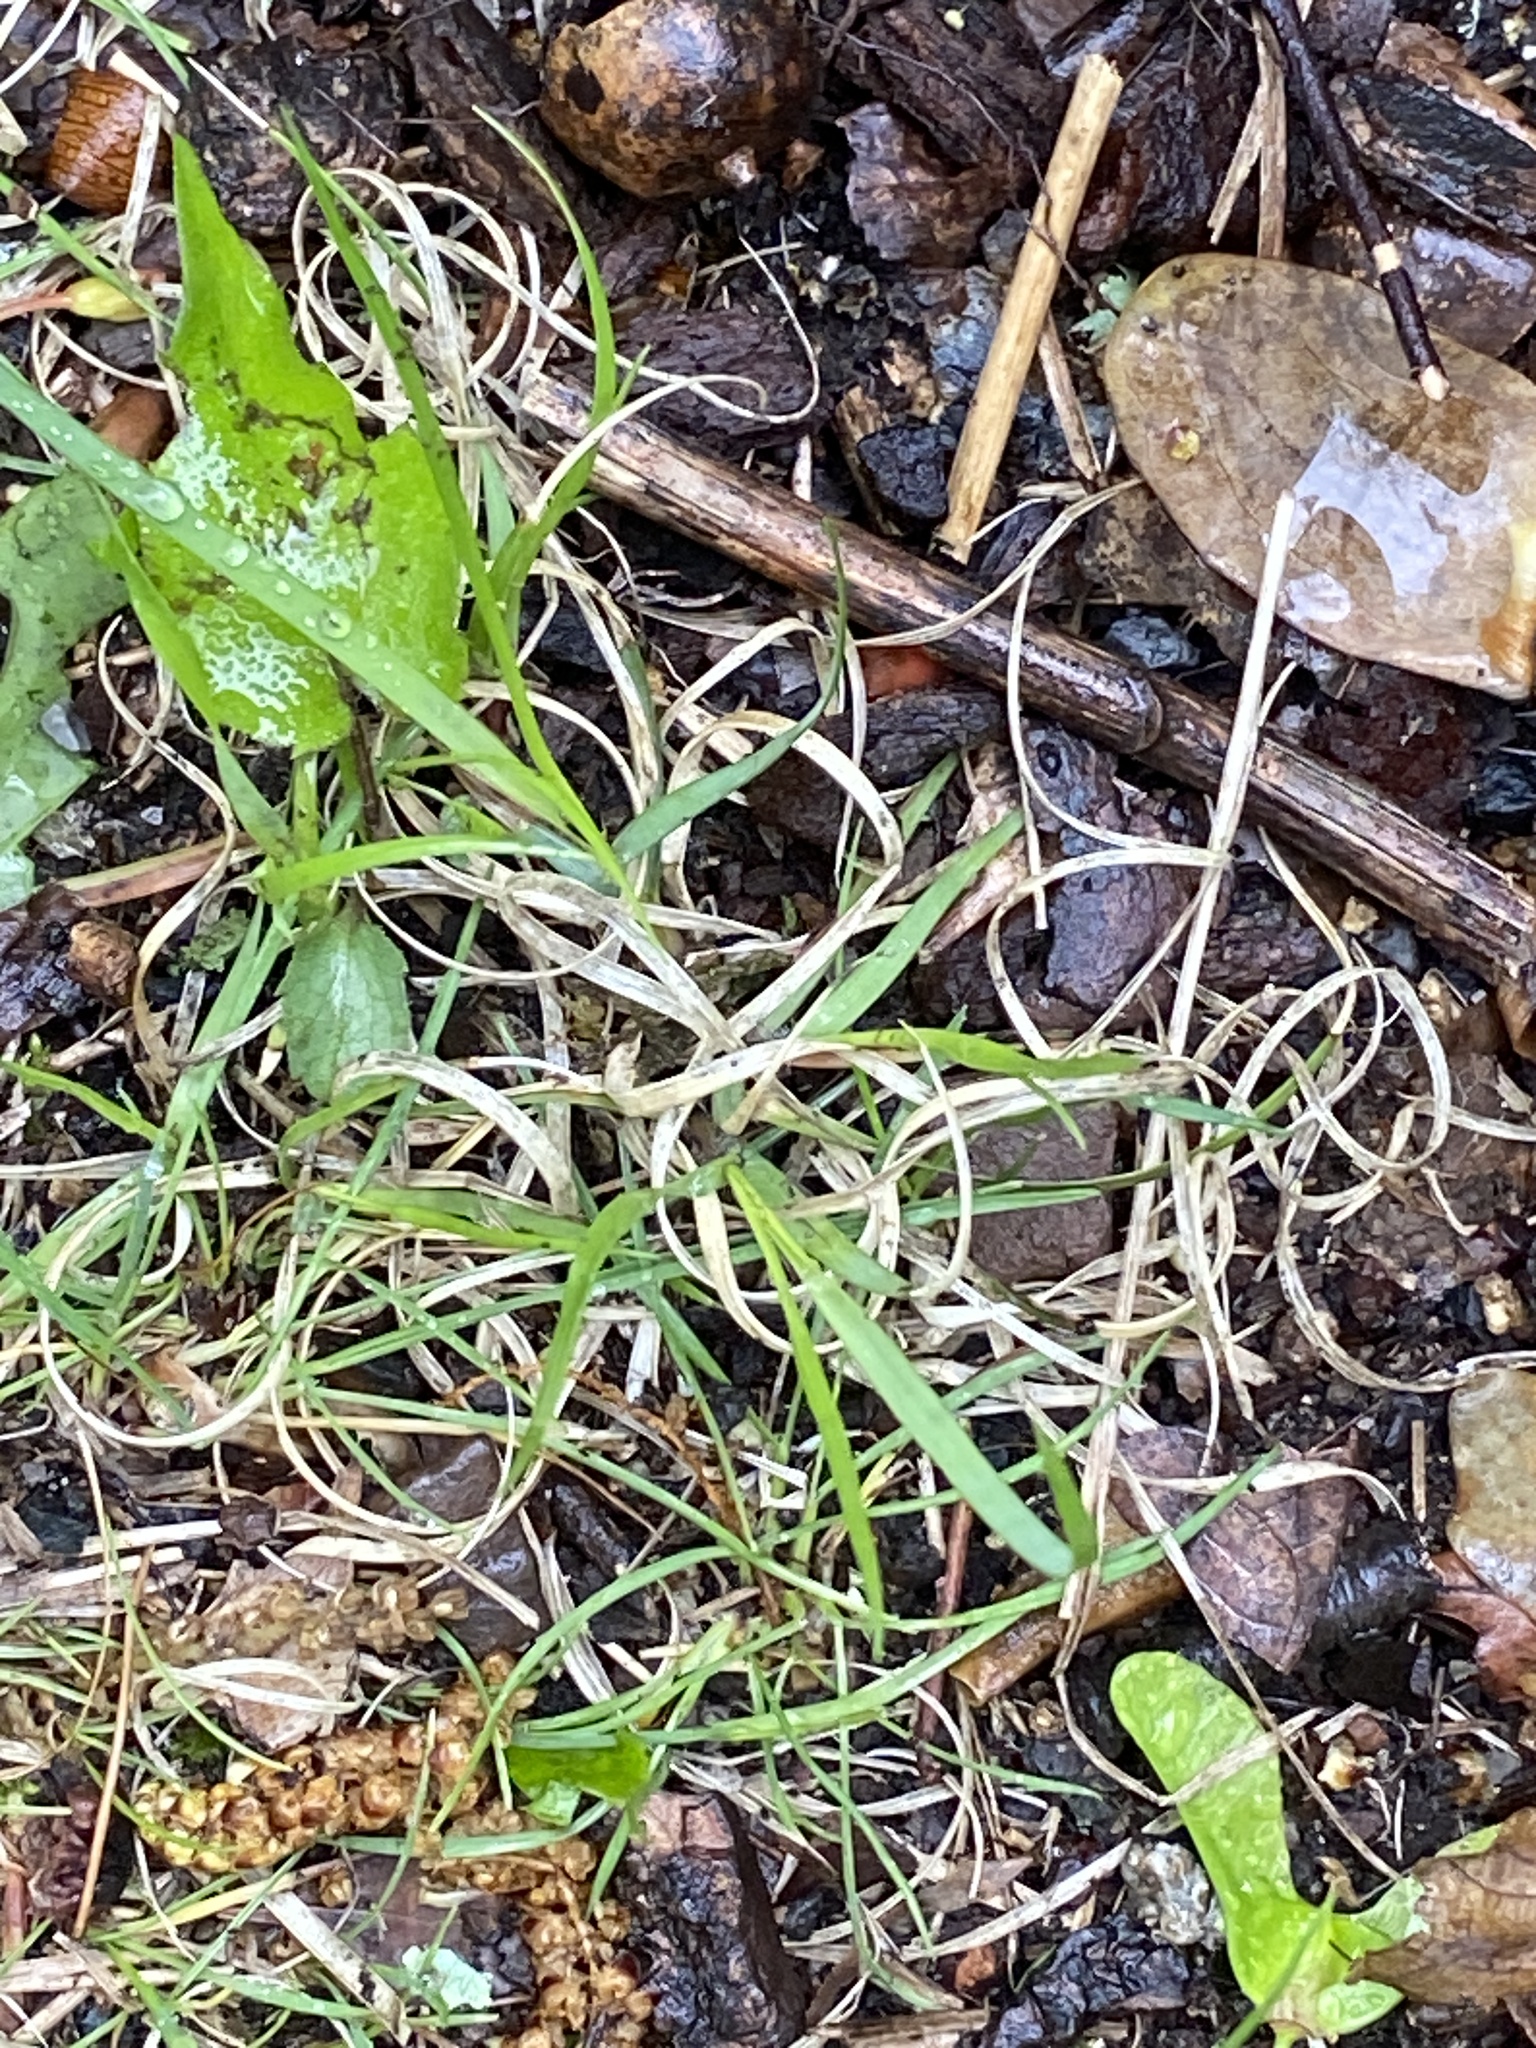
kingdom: Plantae
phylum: Tracheophyta
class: Liliopsida
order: Poales
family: Poaceae
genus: Danthonia
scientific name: Danthonia spicata
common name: Common wild oatgrass
